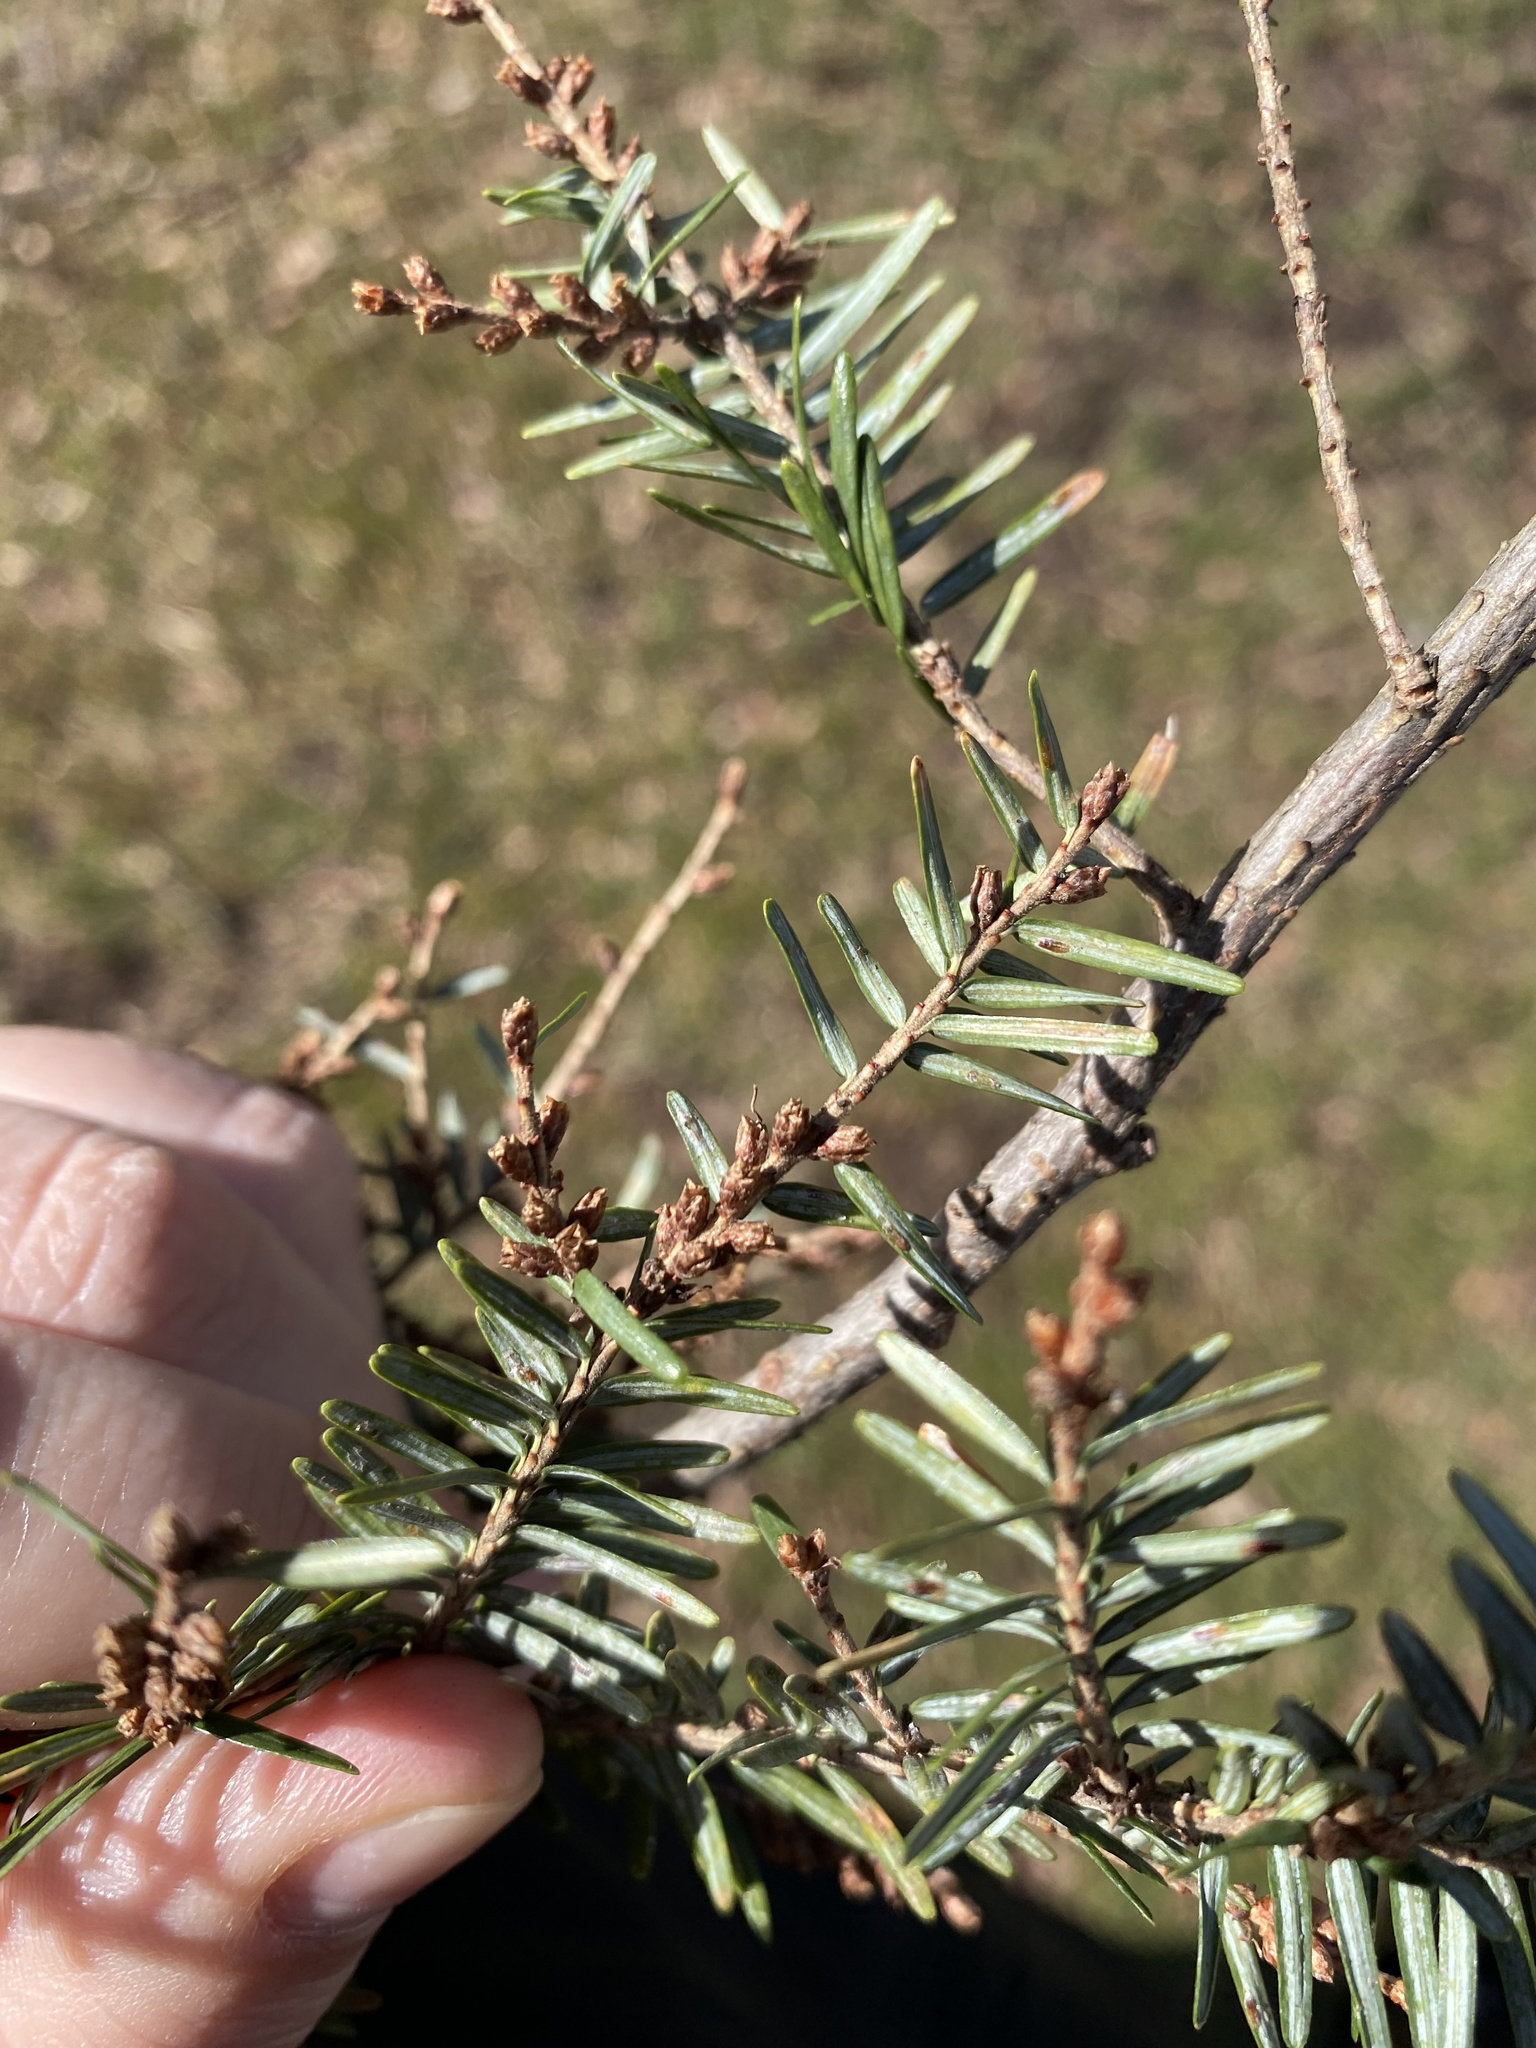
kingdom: Animalia
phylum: Arthropoda
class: Insecta
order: Hemiptera
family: Diaspididae
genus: Fiorinia
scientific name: Fiorinia externa
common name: Elongate hemlock scale
